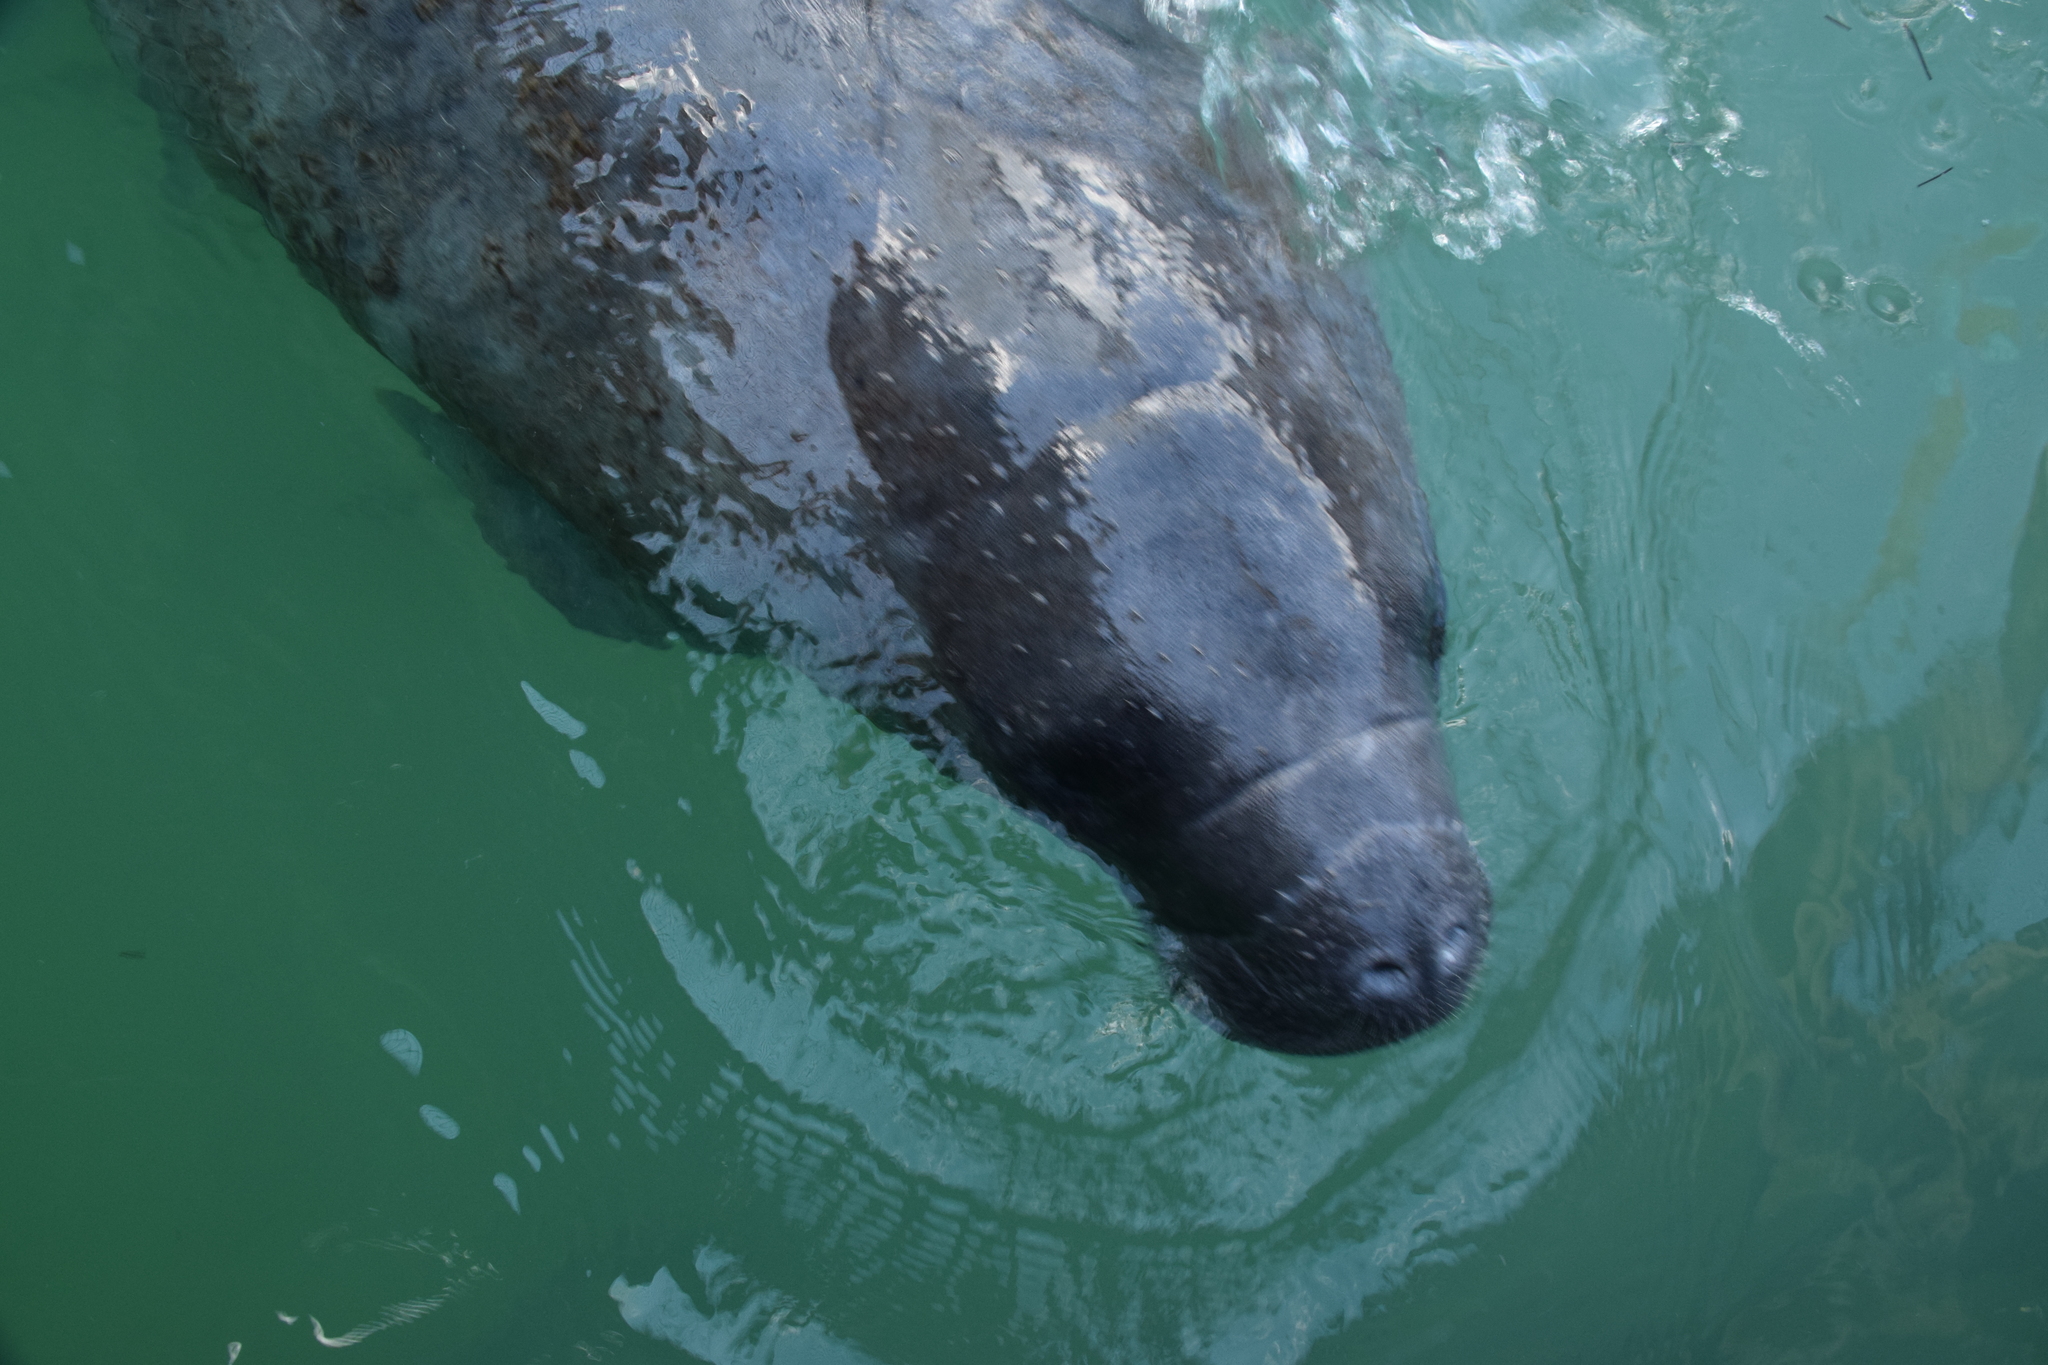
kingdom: Animalia
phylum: Chordata
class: Mammalia
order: Sirenia
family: Trichechidae
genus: Trichechus
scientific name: Trichechus manatus
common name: West indian manatee
